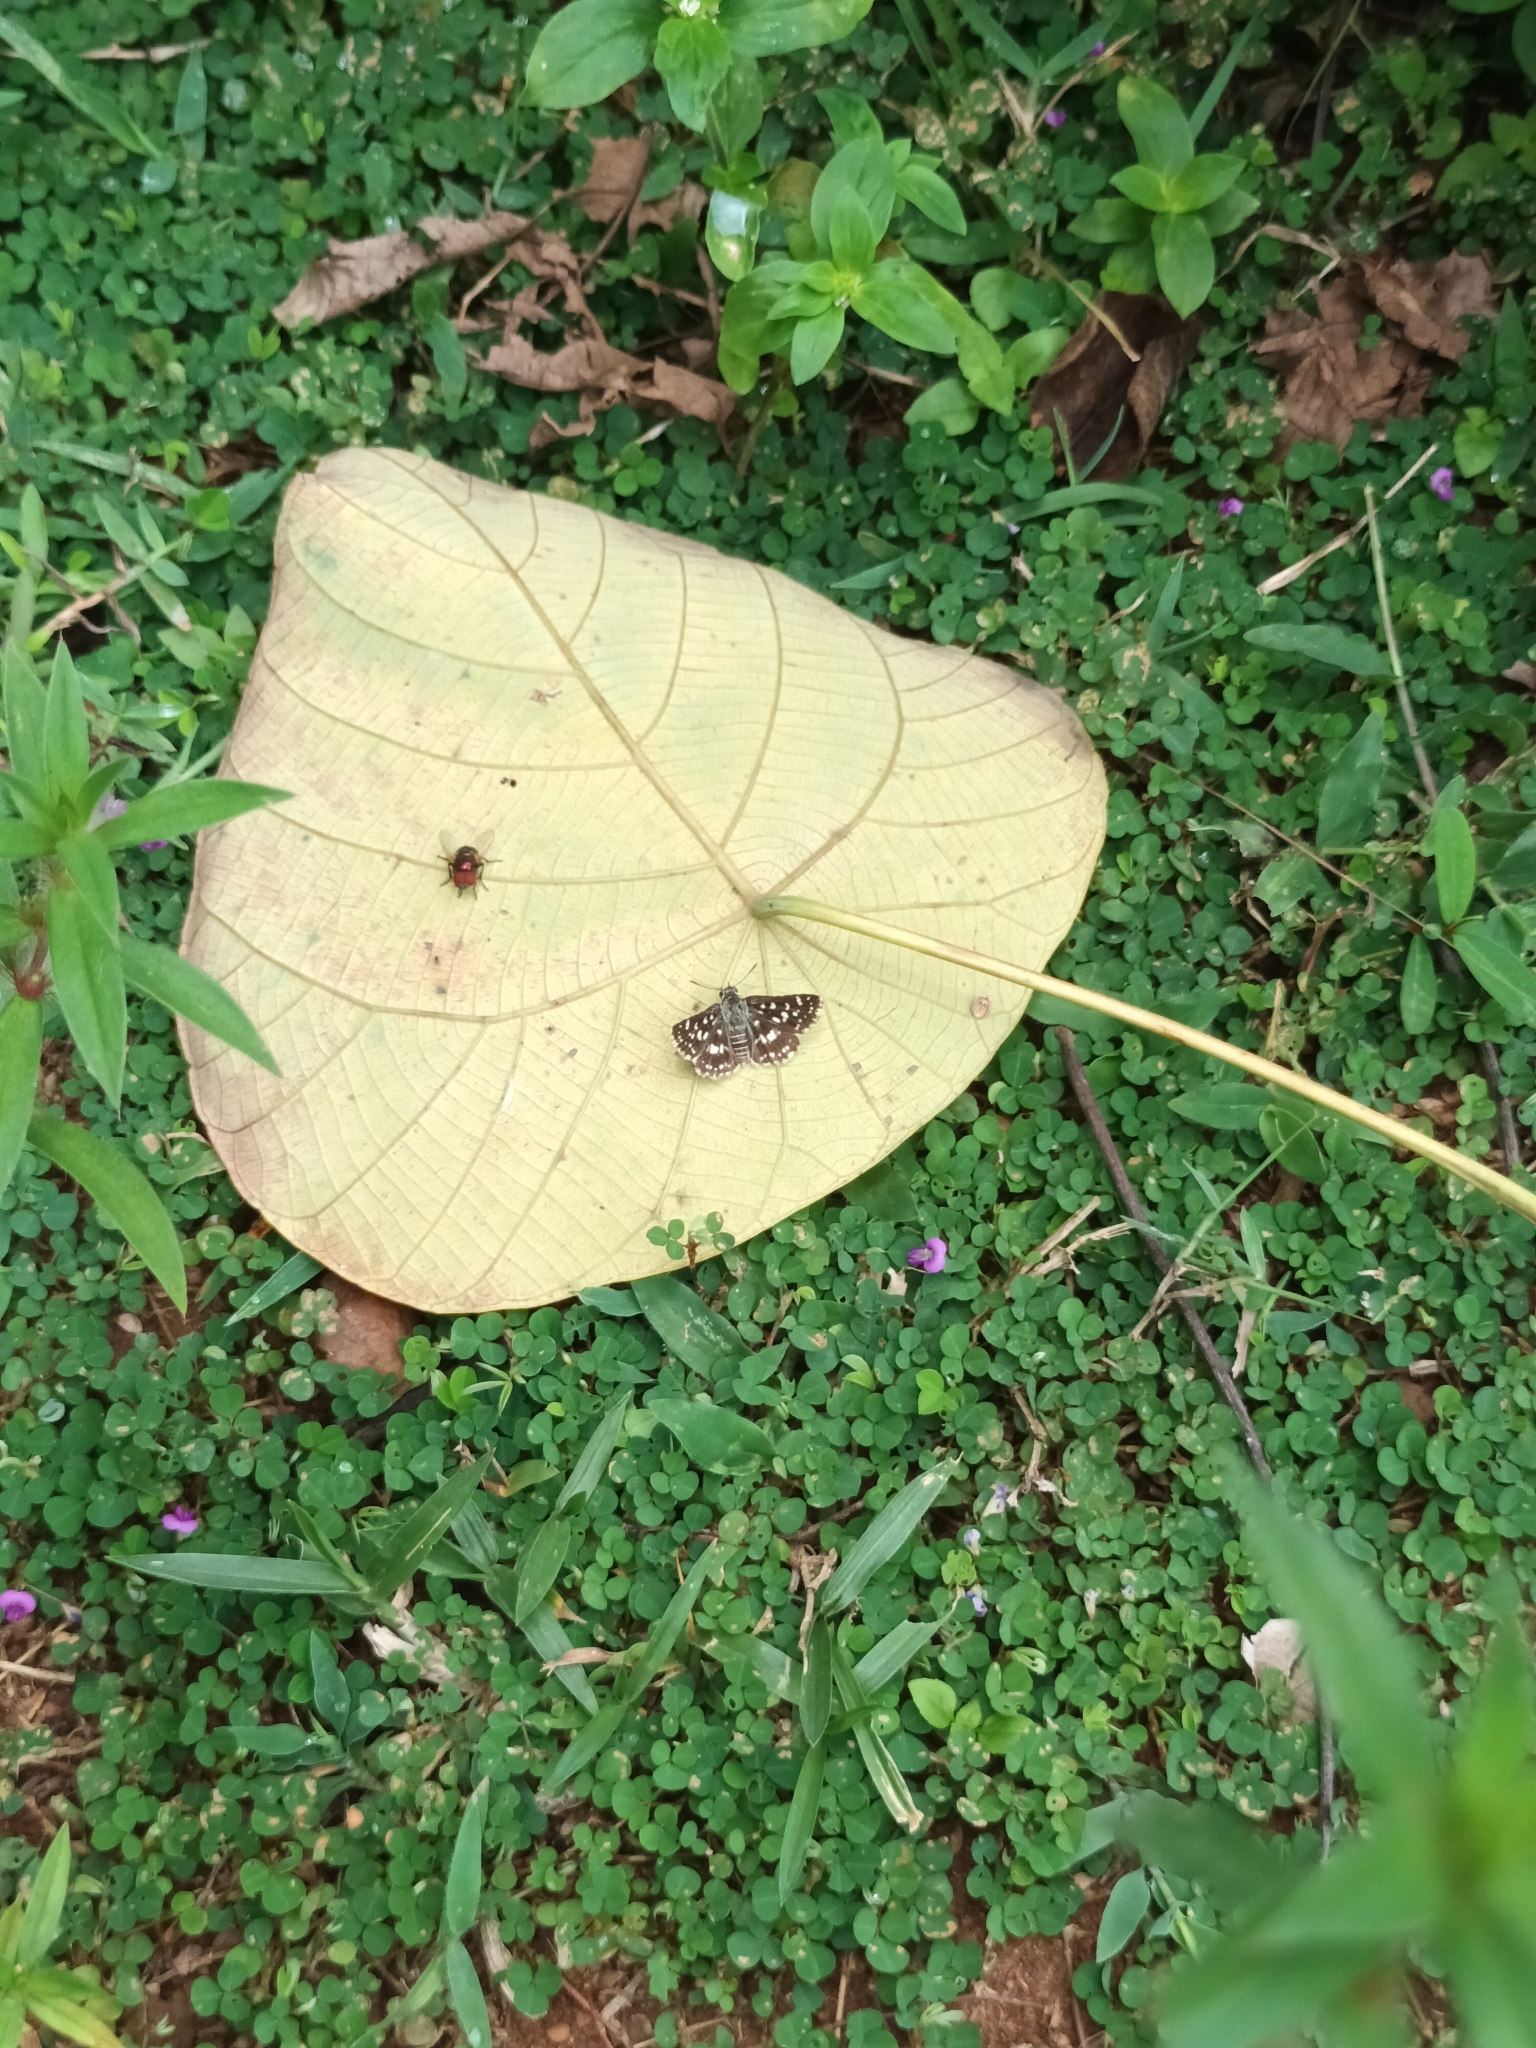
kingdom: Animalia
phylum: Arthropoda
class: Insecta
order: Lepidoptera
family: Hesperiidae
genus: Spialia
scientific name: Spialia galba
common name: Indian skipper
